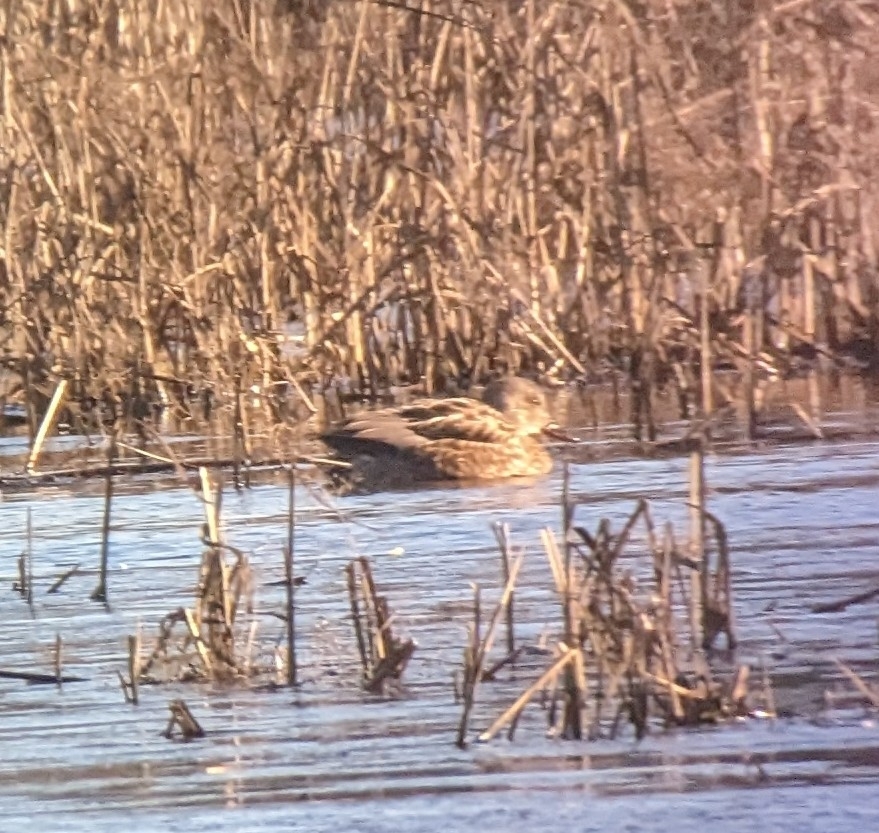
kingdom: Animalia
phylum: Chordata
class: Aves
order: Anseriformes
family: Anatidae
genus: Mareca
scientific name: Mareca strepera
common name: Gadwall
